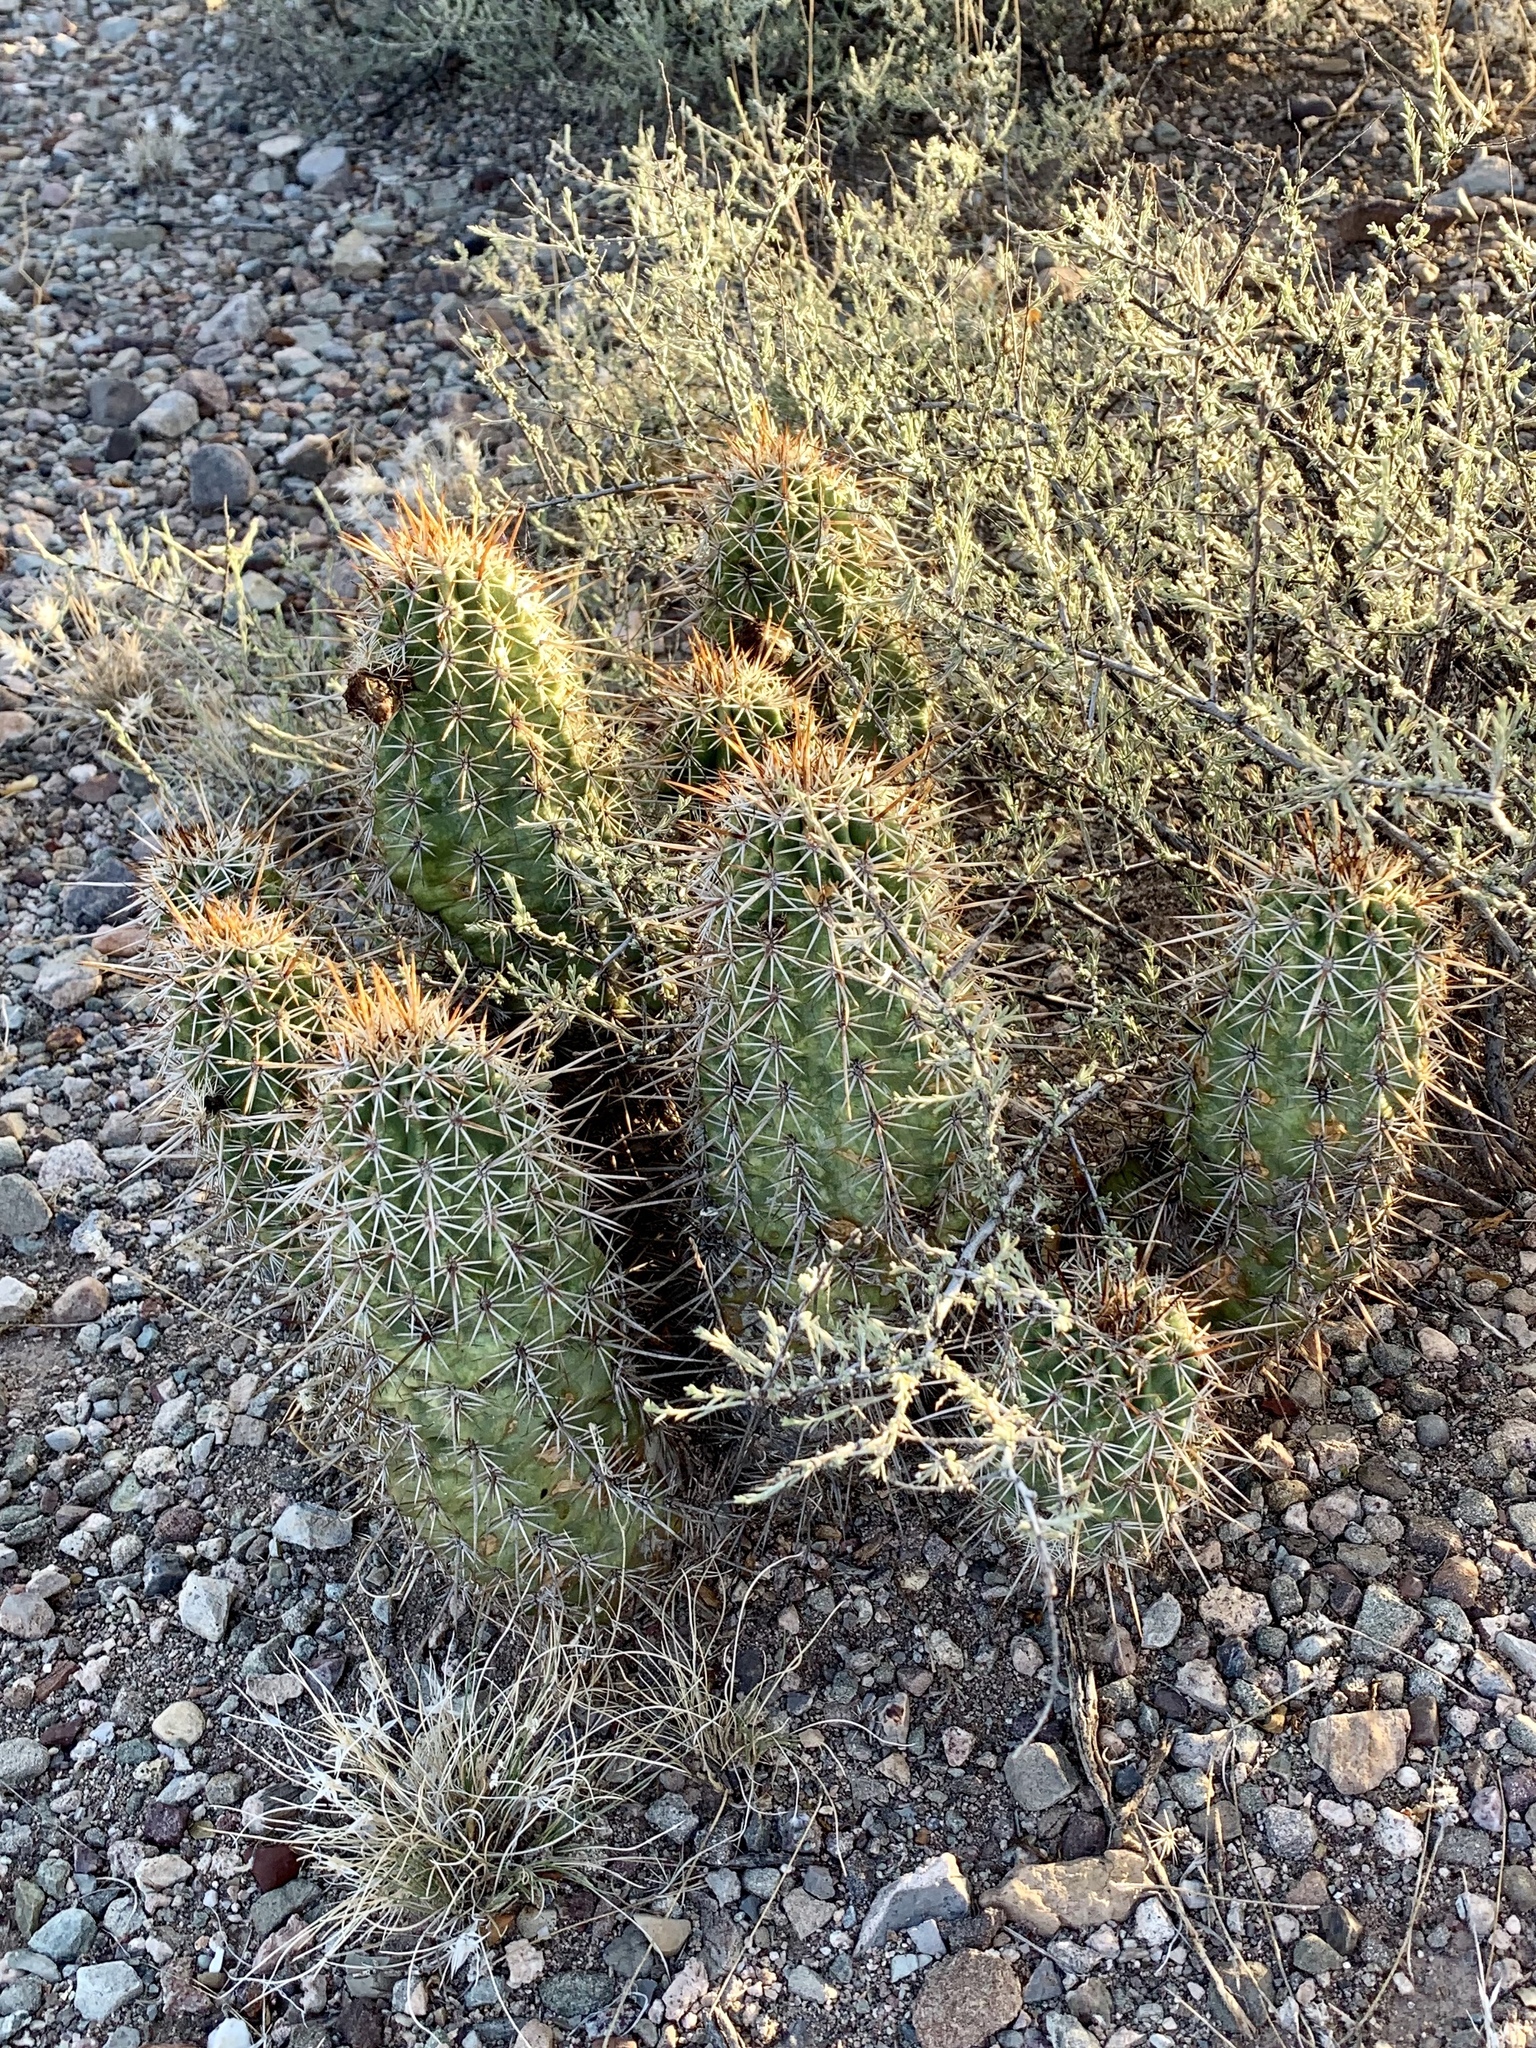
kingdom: Plantae
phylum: Tracheophyta
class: Magnoliopsida
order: Caryophyllales
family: Cactaceae
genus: Echinocereus
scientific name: Echinocereus fasciculatus
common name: Bundle hedgehog
